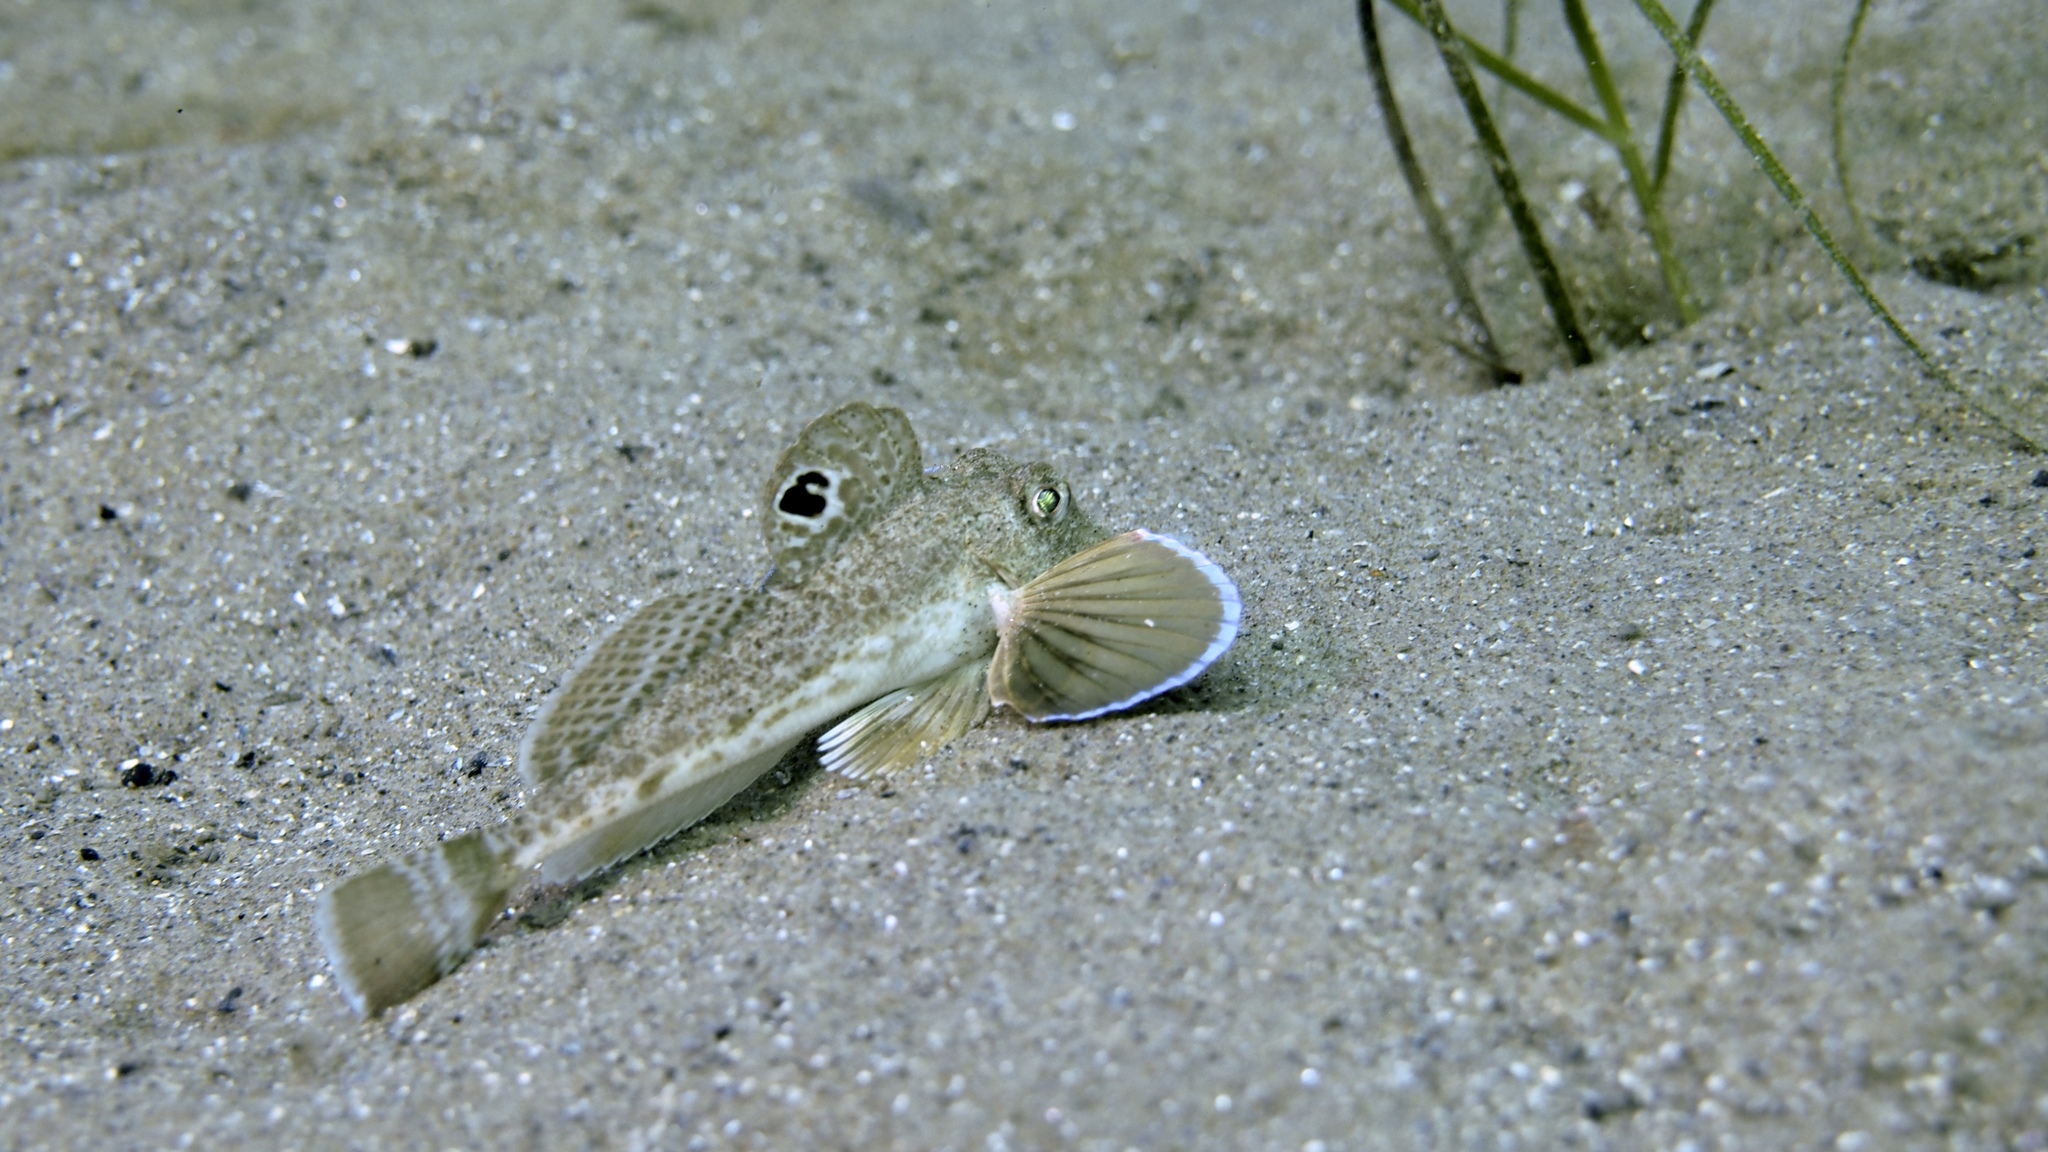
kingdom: Animalia
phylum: Chordata
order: Scorpaeniformes
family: Triglidae
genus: Lepidotrigla
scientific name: Lepidotrigla papilio
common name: Australian spiny gurnard
